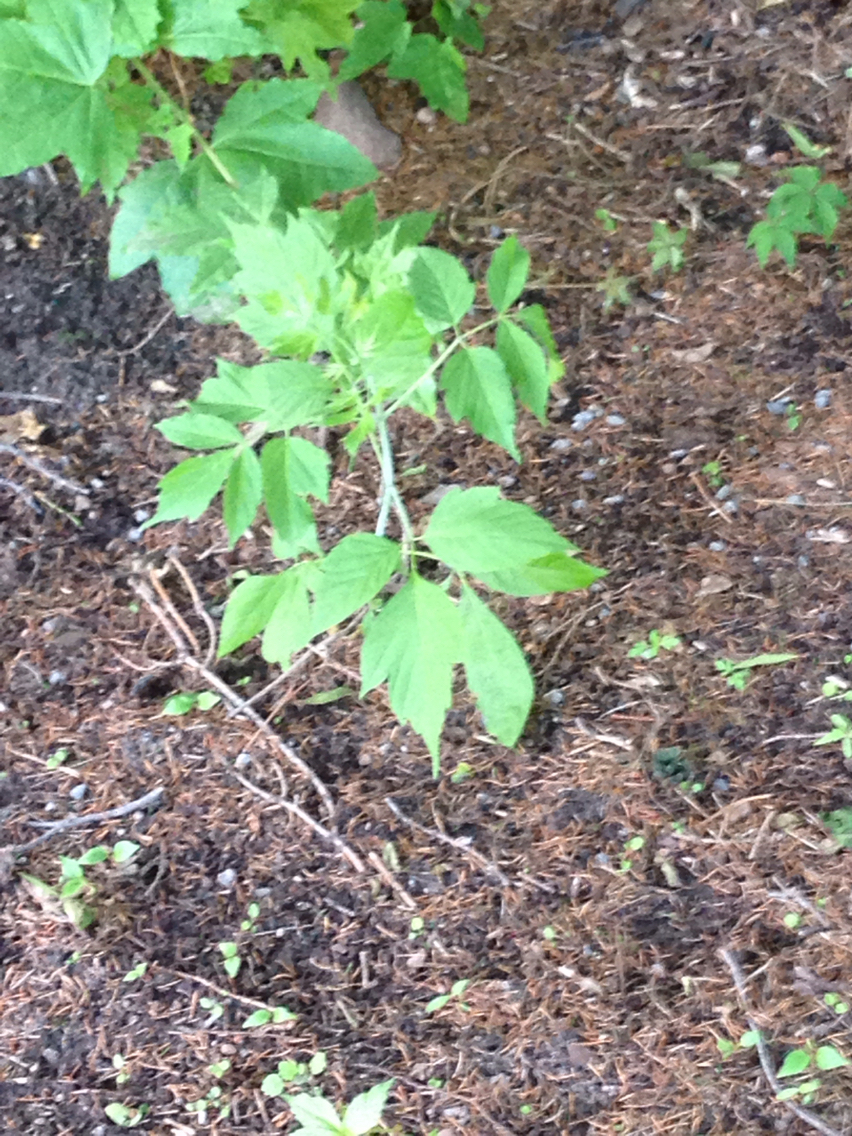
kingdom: Plantae
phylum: Tracheophyta
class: Magnoliopsida
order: Sapindales
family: Sapindaceae
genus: Acer
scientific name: Acer negundo
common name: Ashleaf maple
